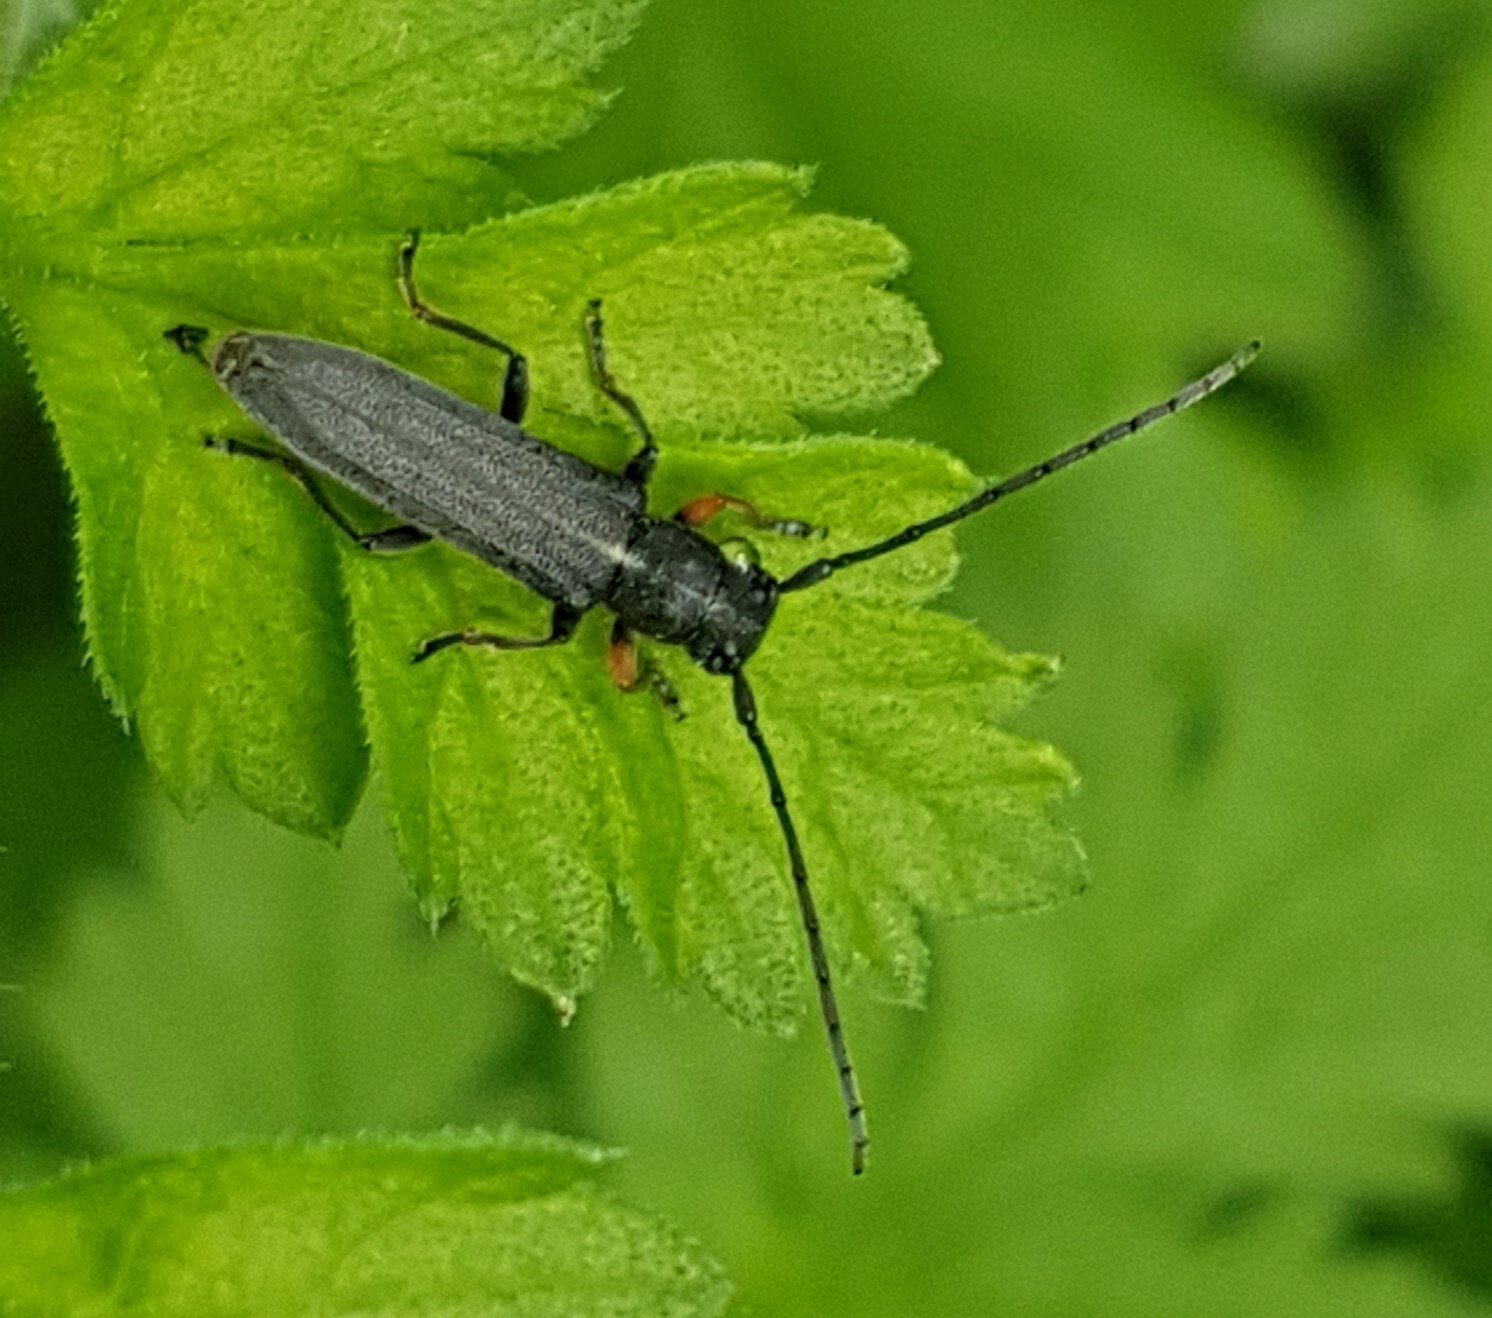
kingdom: Animalia
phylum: Arthropoda
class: Insecta
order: Coleoptera
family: Cerambycidae
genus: Phytoecia
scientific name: Phytoecia cylindrica
